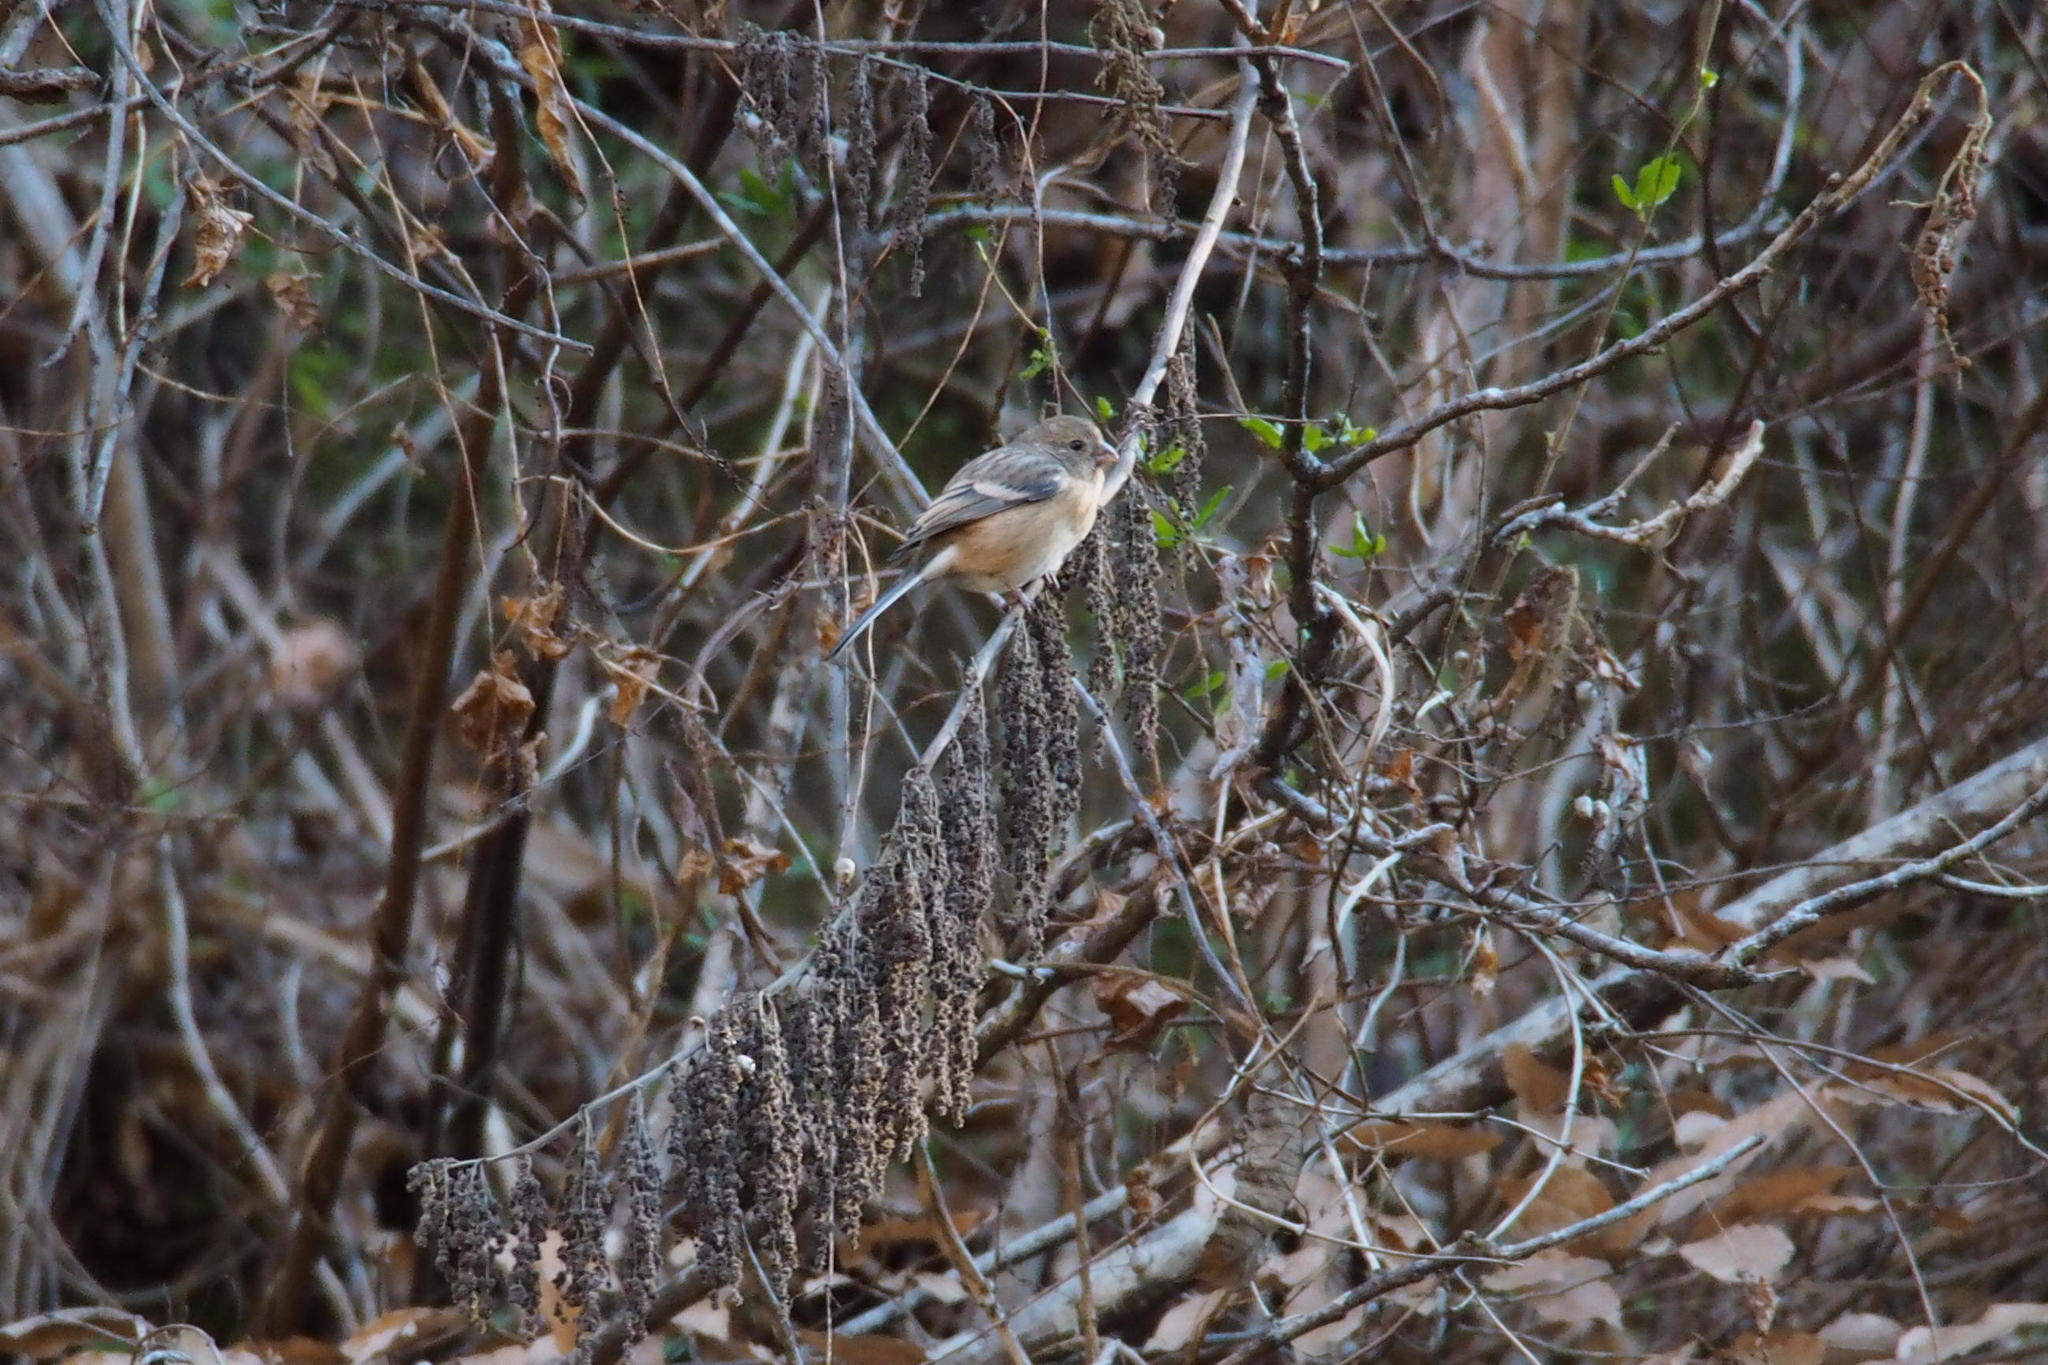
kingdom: Animalia
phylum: Chordata
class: Aves
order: Passeriformes
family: Fringillidae
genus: Carpodacus
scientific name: Carpodacus sibiricus
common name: Long-tailed rosefinch
